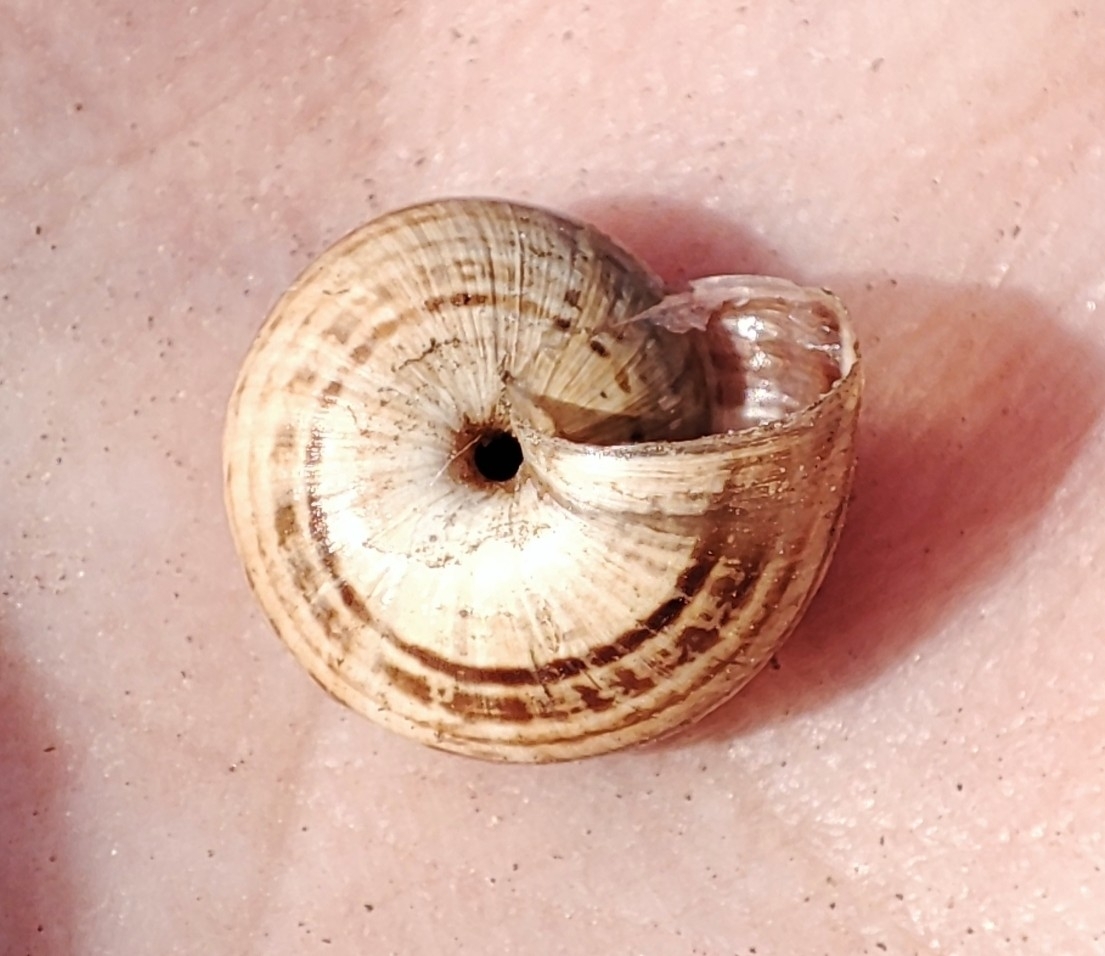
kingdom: Animalia
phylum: Mollusca
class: Gastropoda
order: Stylommatophora
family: Geomitridae
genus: Xeropicta
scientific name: Xeropicta krynickii
